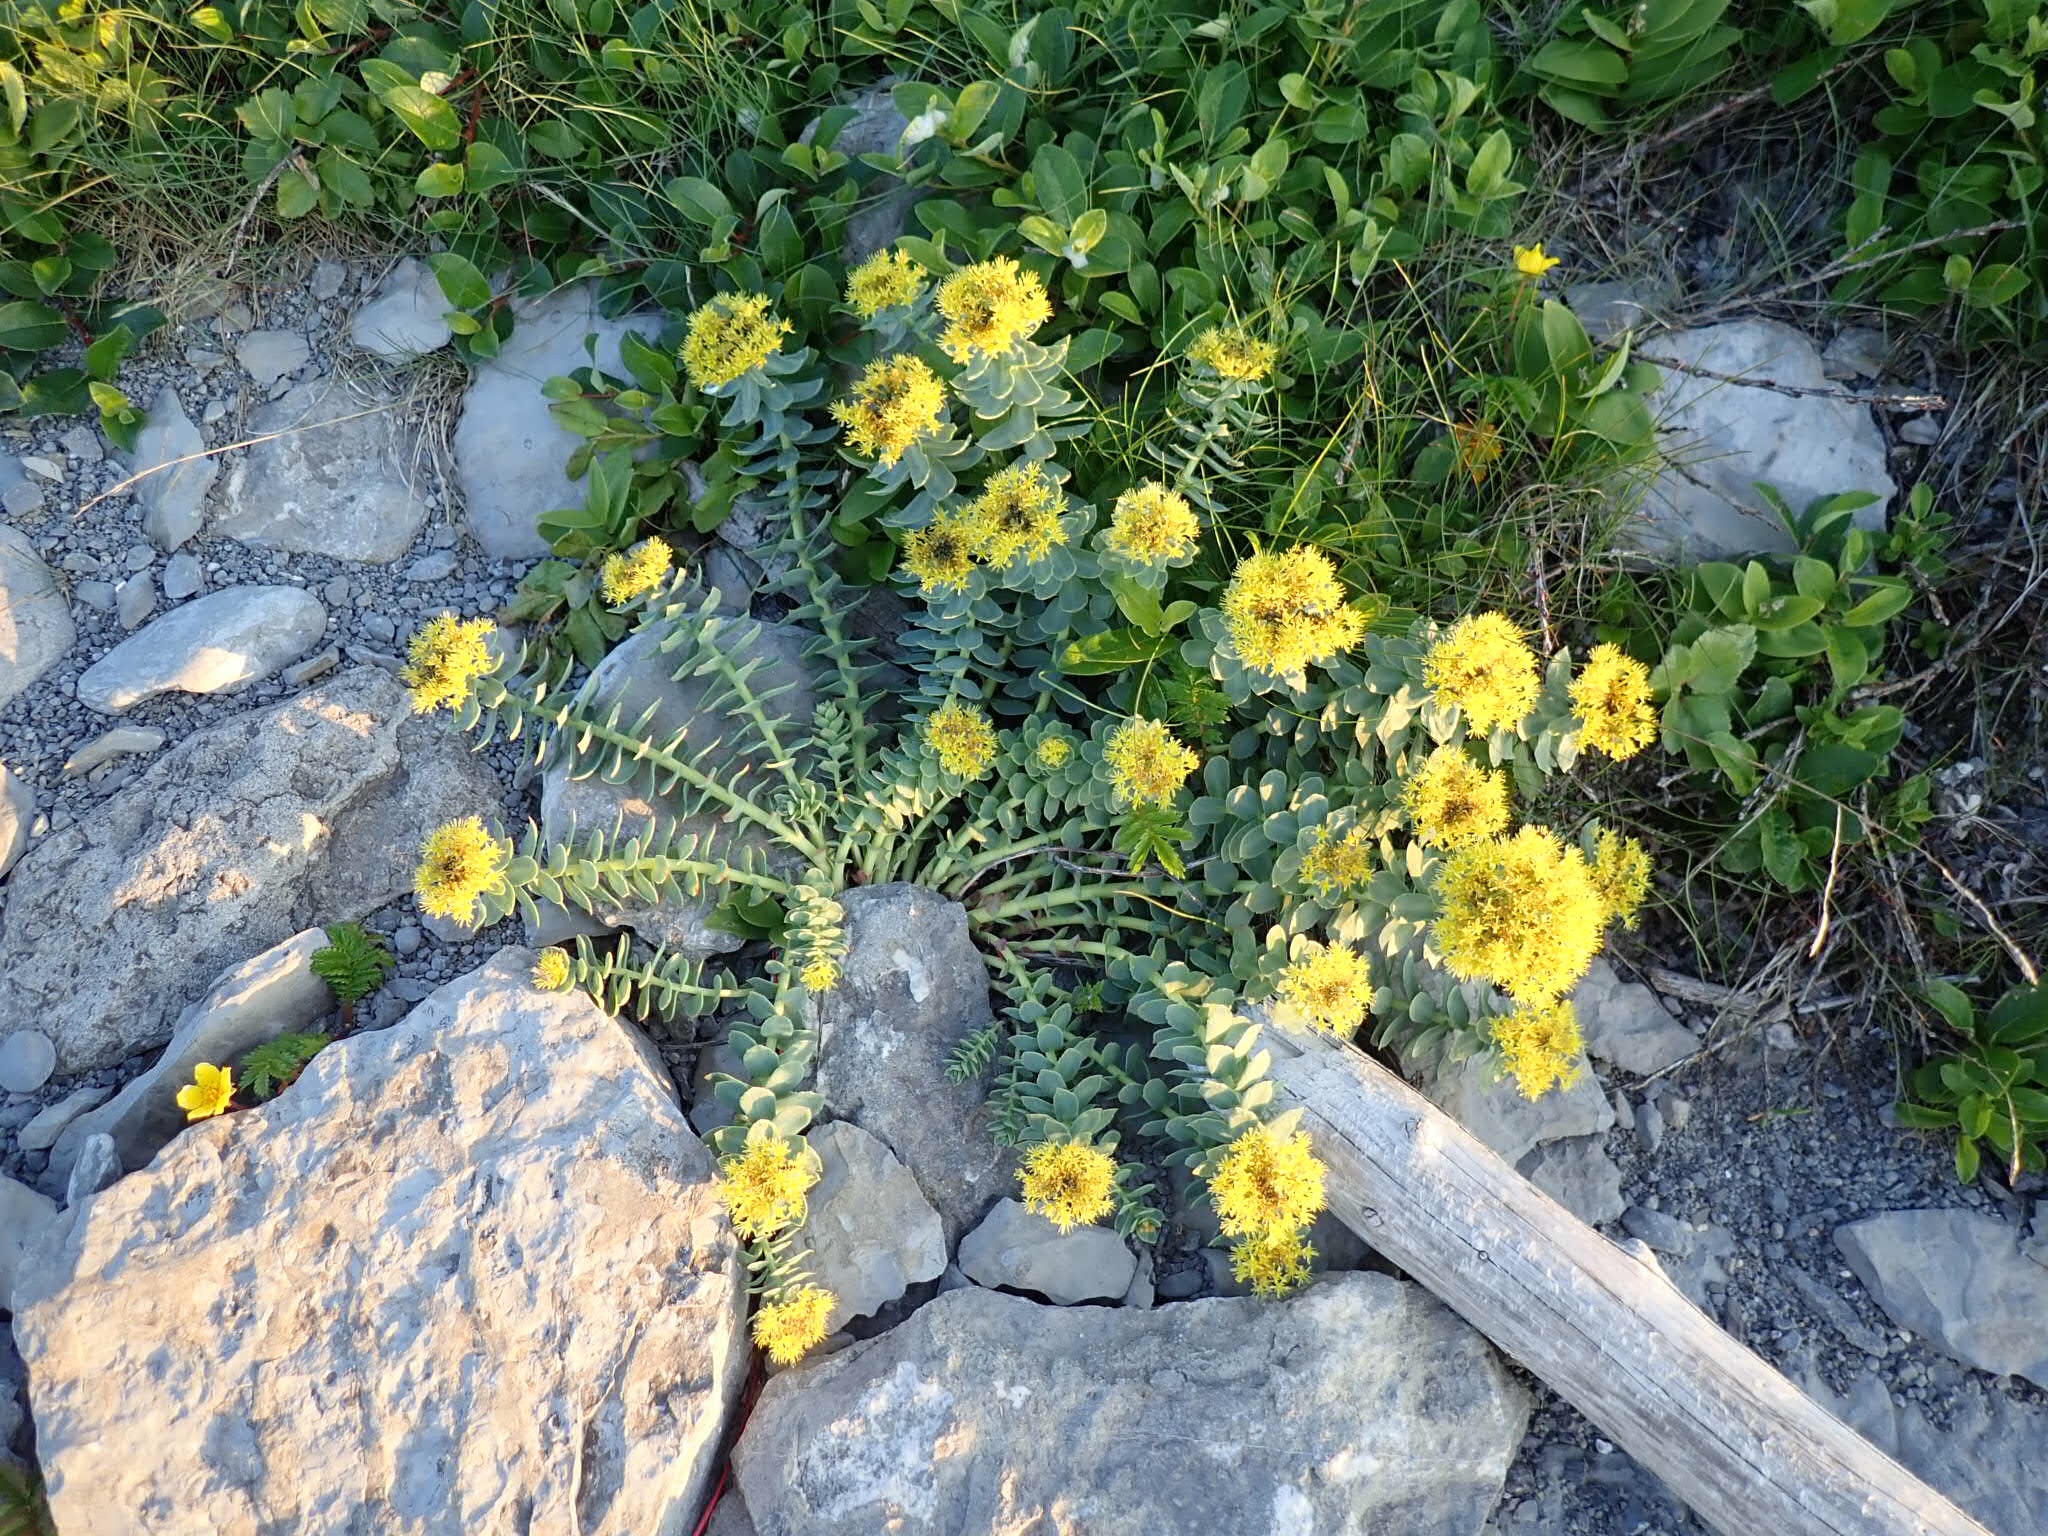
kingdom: Plantae
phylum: Tracheophyta
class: Magnoliopsida
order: Saxifragales
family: Crassulaceae
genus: Rhodiola
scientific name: Rhodiola rosea
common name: Roseroot
